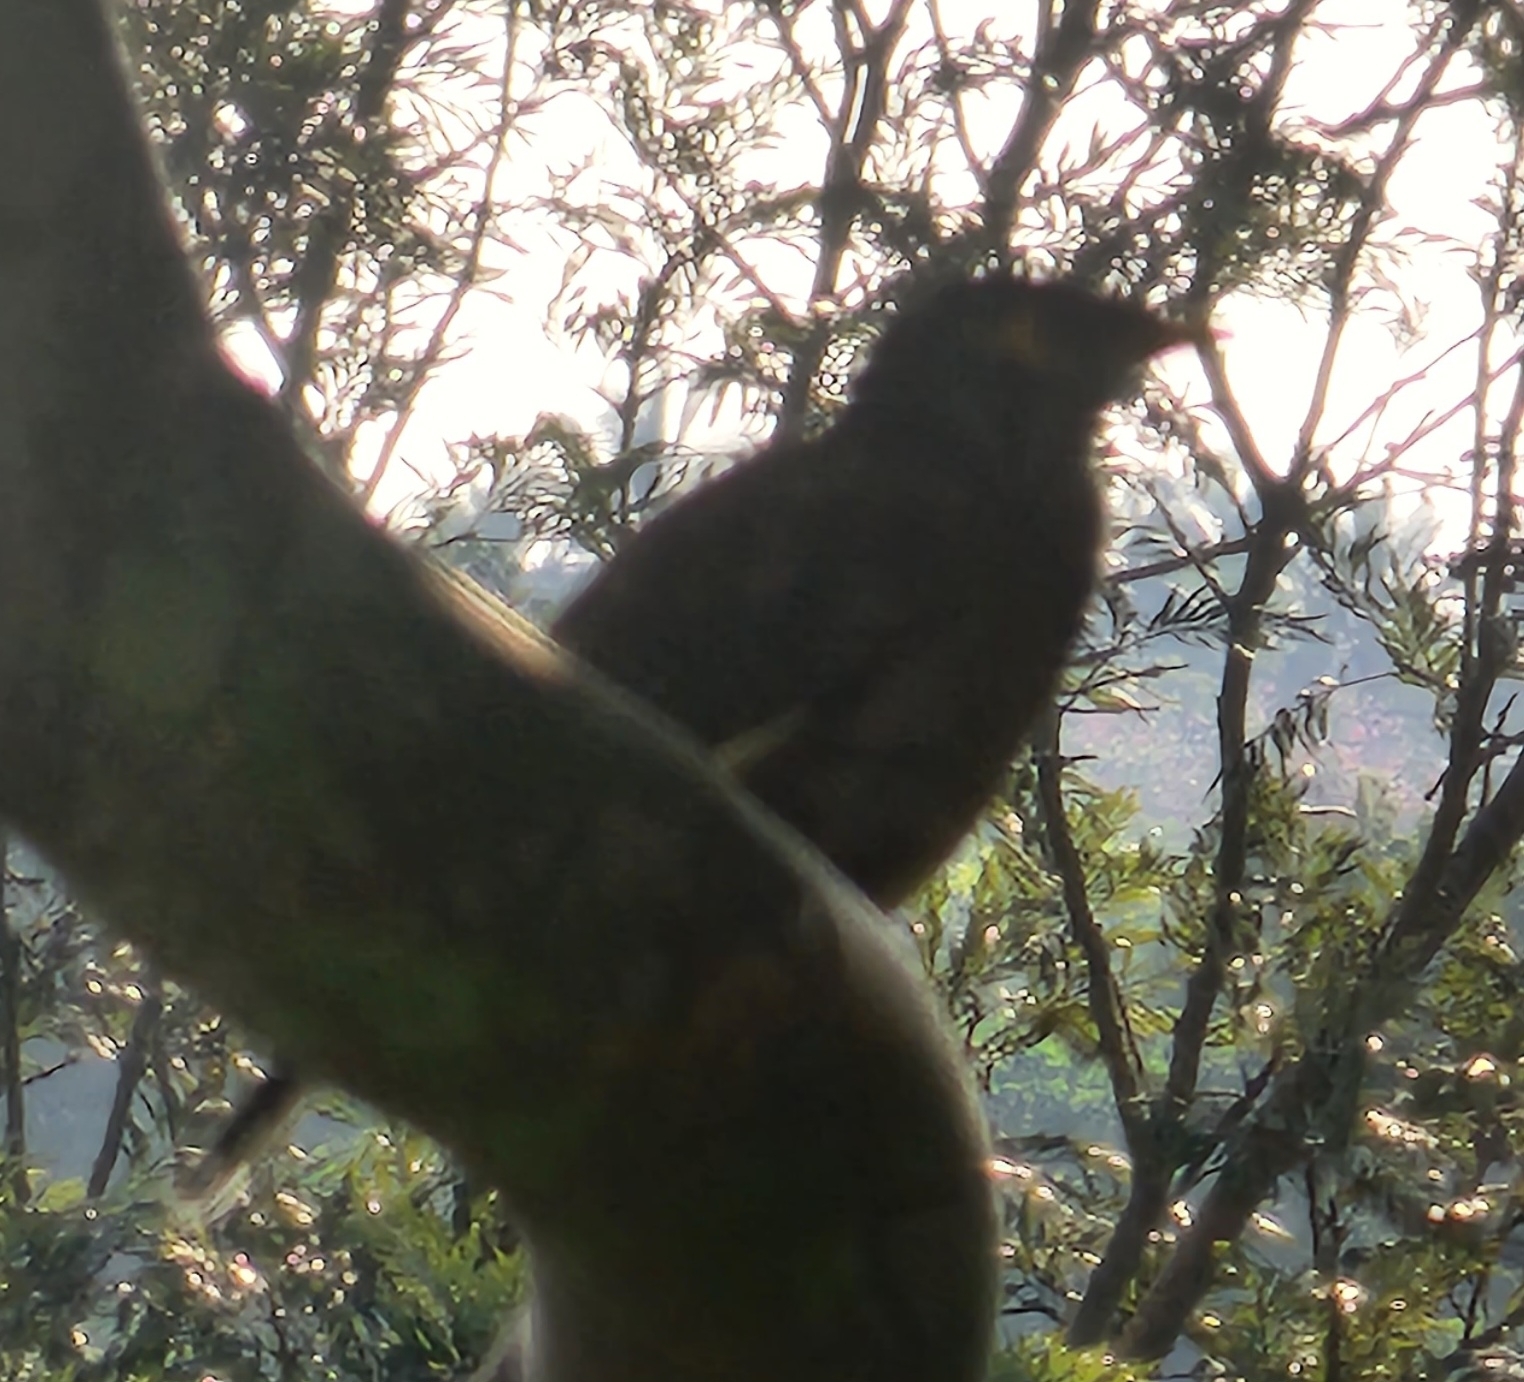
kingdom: Animalia
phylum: Chordata
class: Aves
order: Passeriformes
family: Sturnidae
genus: Acridotheres
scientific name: Acridotheres tristis
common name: Common myna
